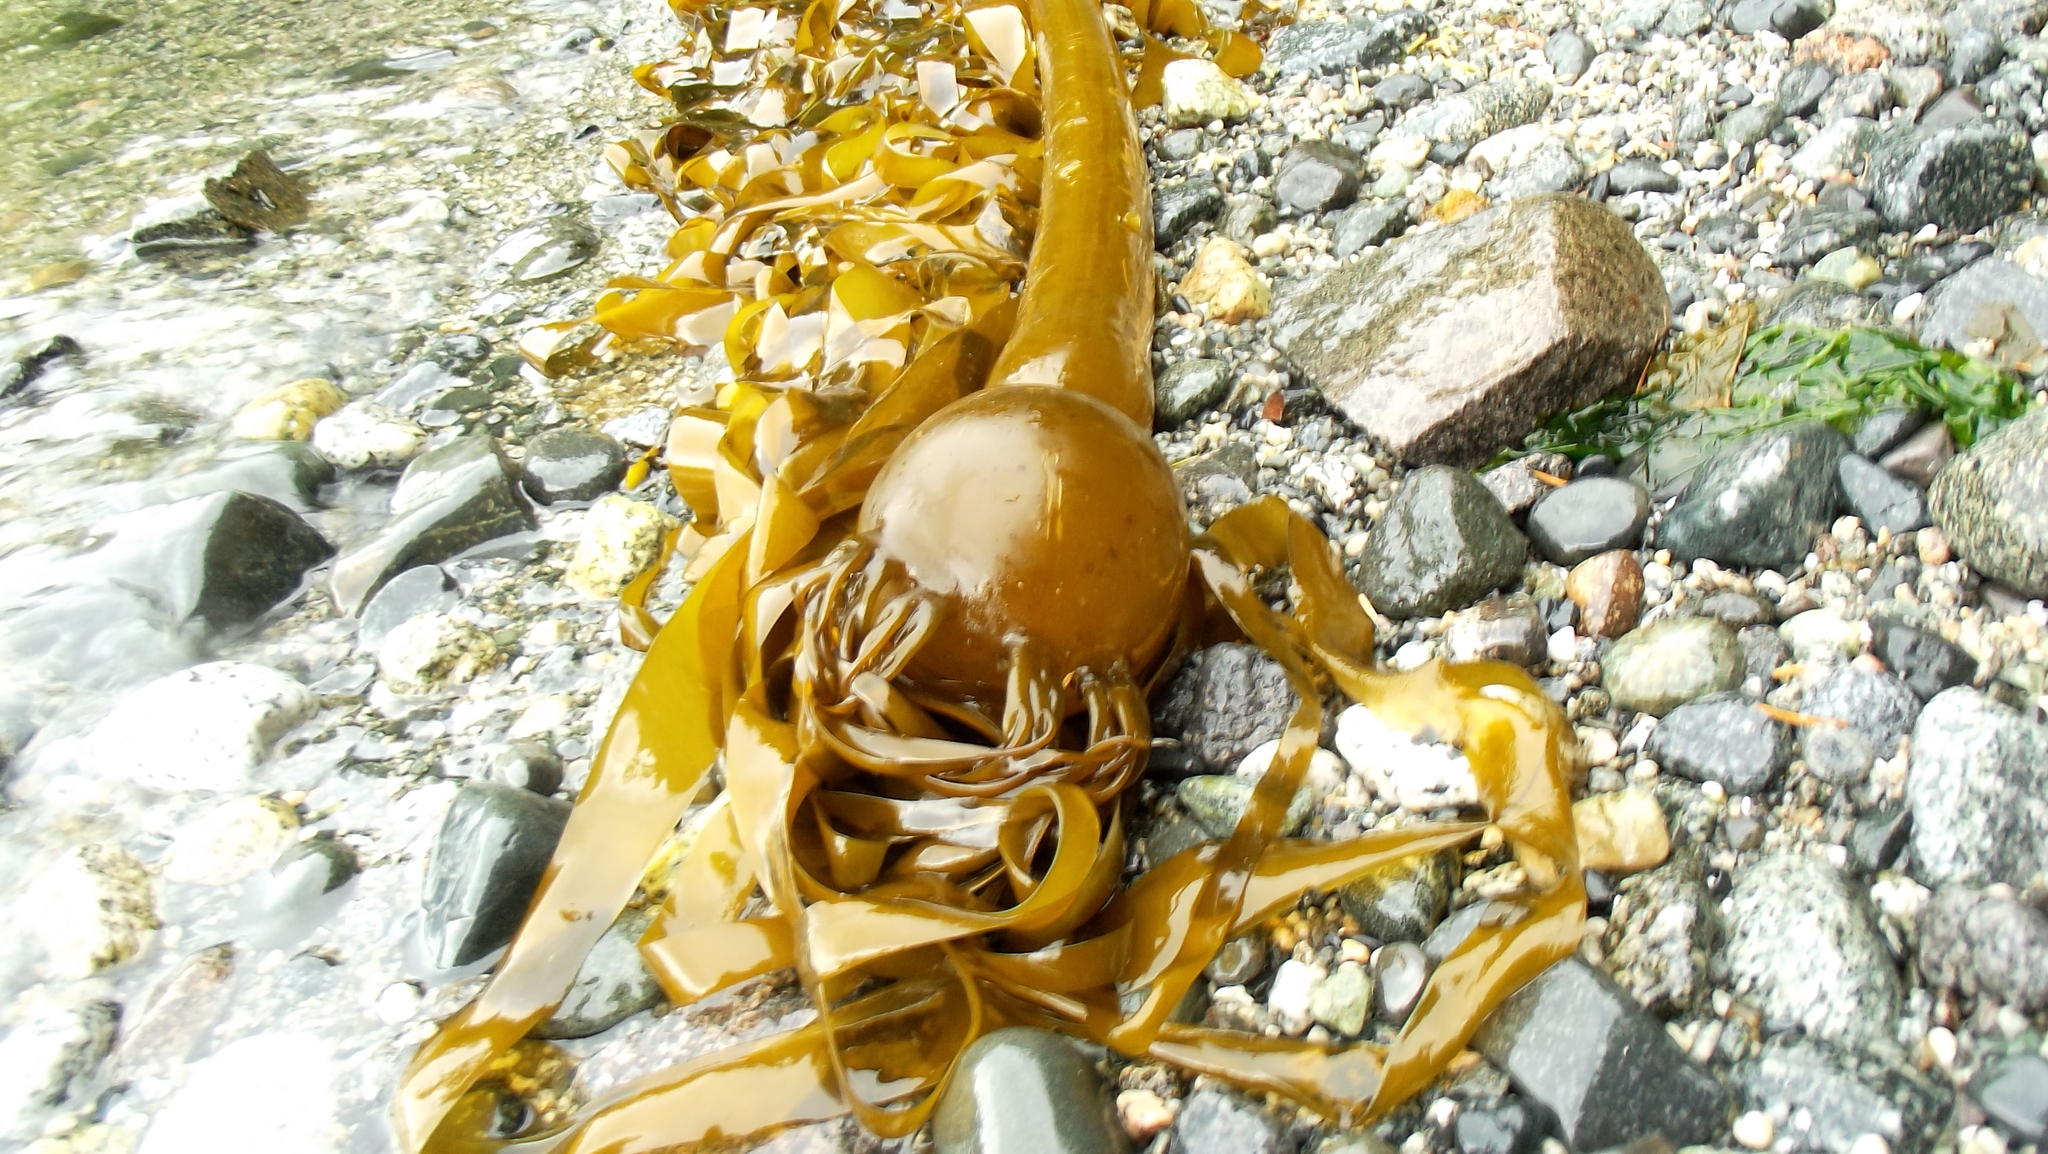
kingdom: Chromista
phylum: Ochrophyta
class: Phaeophyceae
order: Laminariales
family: Laminariaceae
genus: Nereocystis
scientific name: Nereocystis luetkeana
